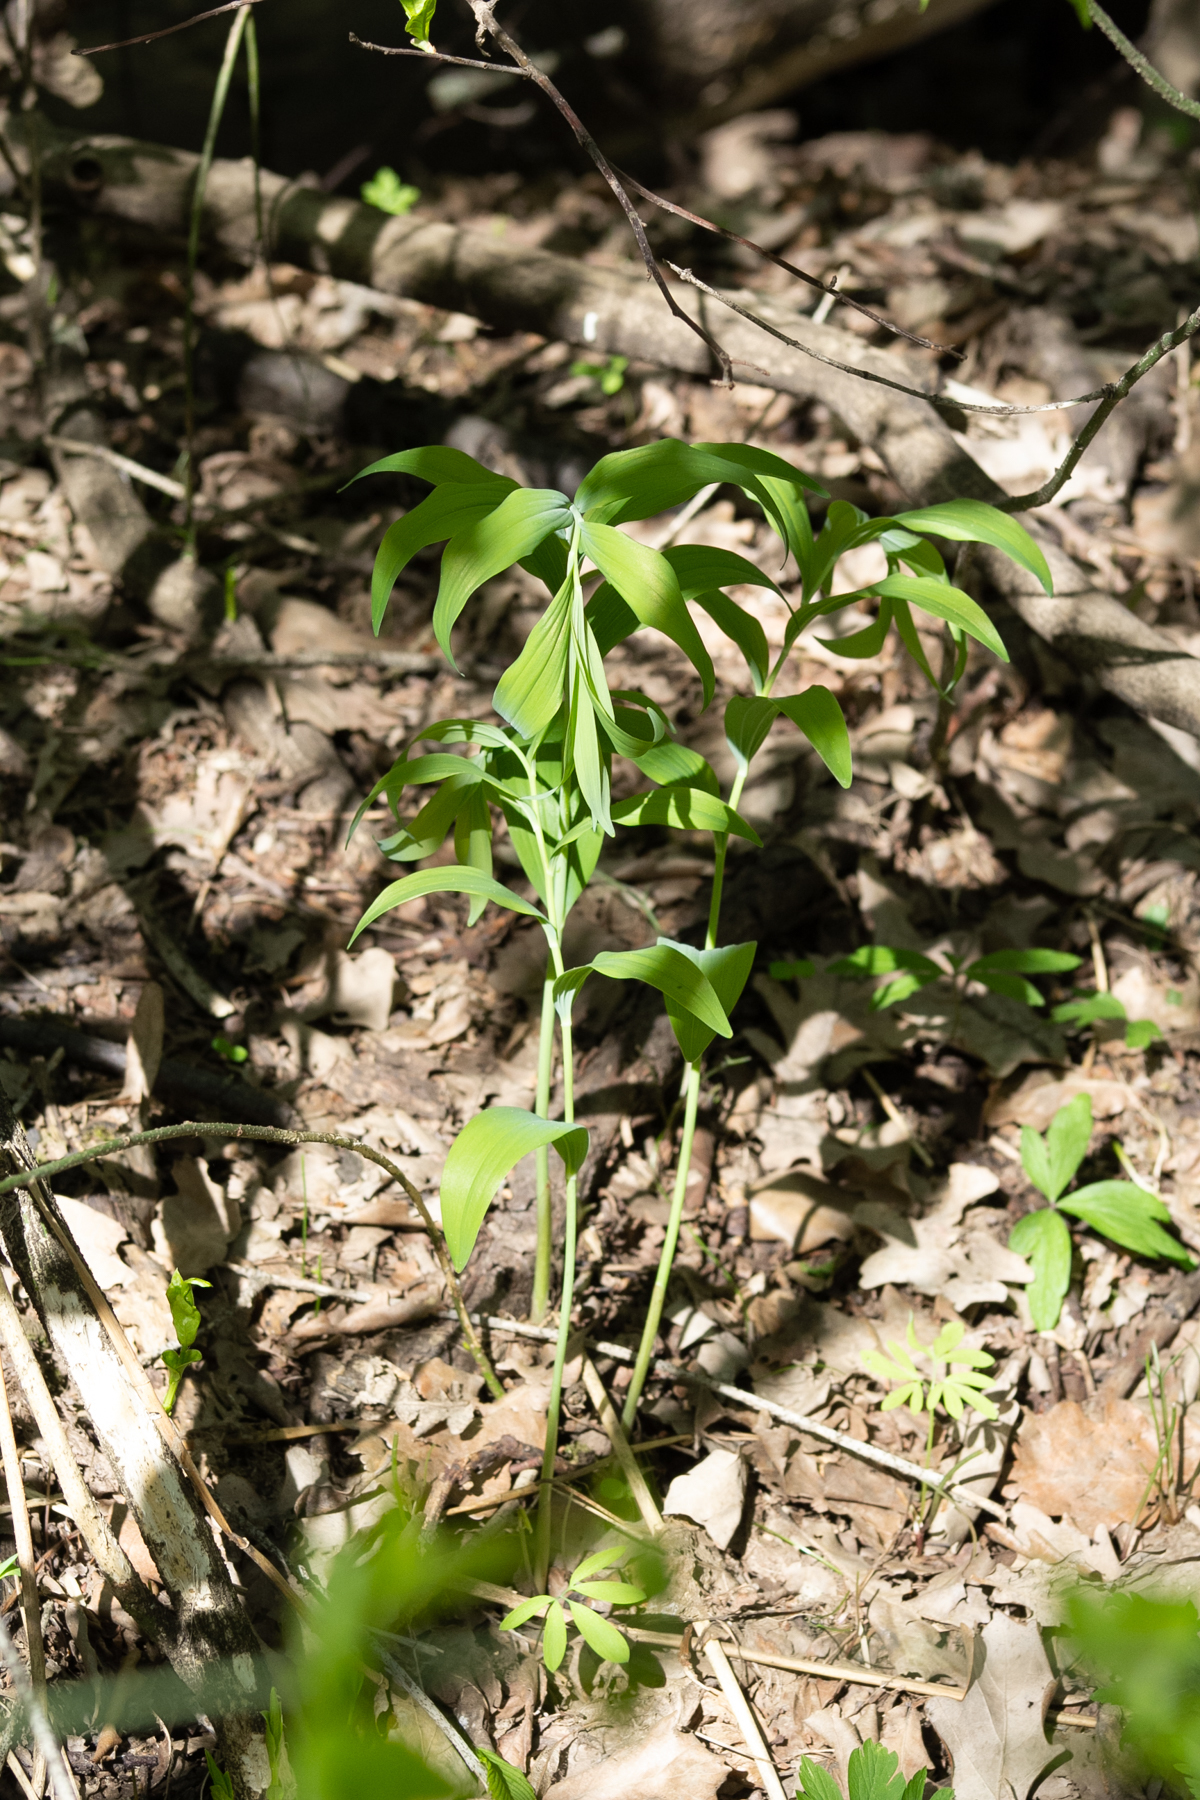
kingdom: Plantae
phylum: Tracheophyta
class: Liliopsida
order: Asparagales
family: Asparagaceae
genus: Polygonatum
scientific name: Polygonatum multiflorum
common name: Solomon's-seal
